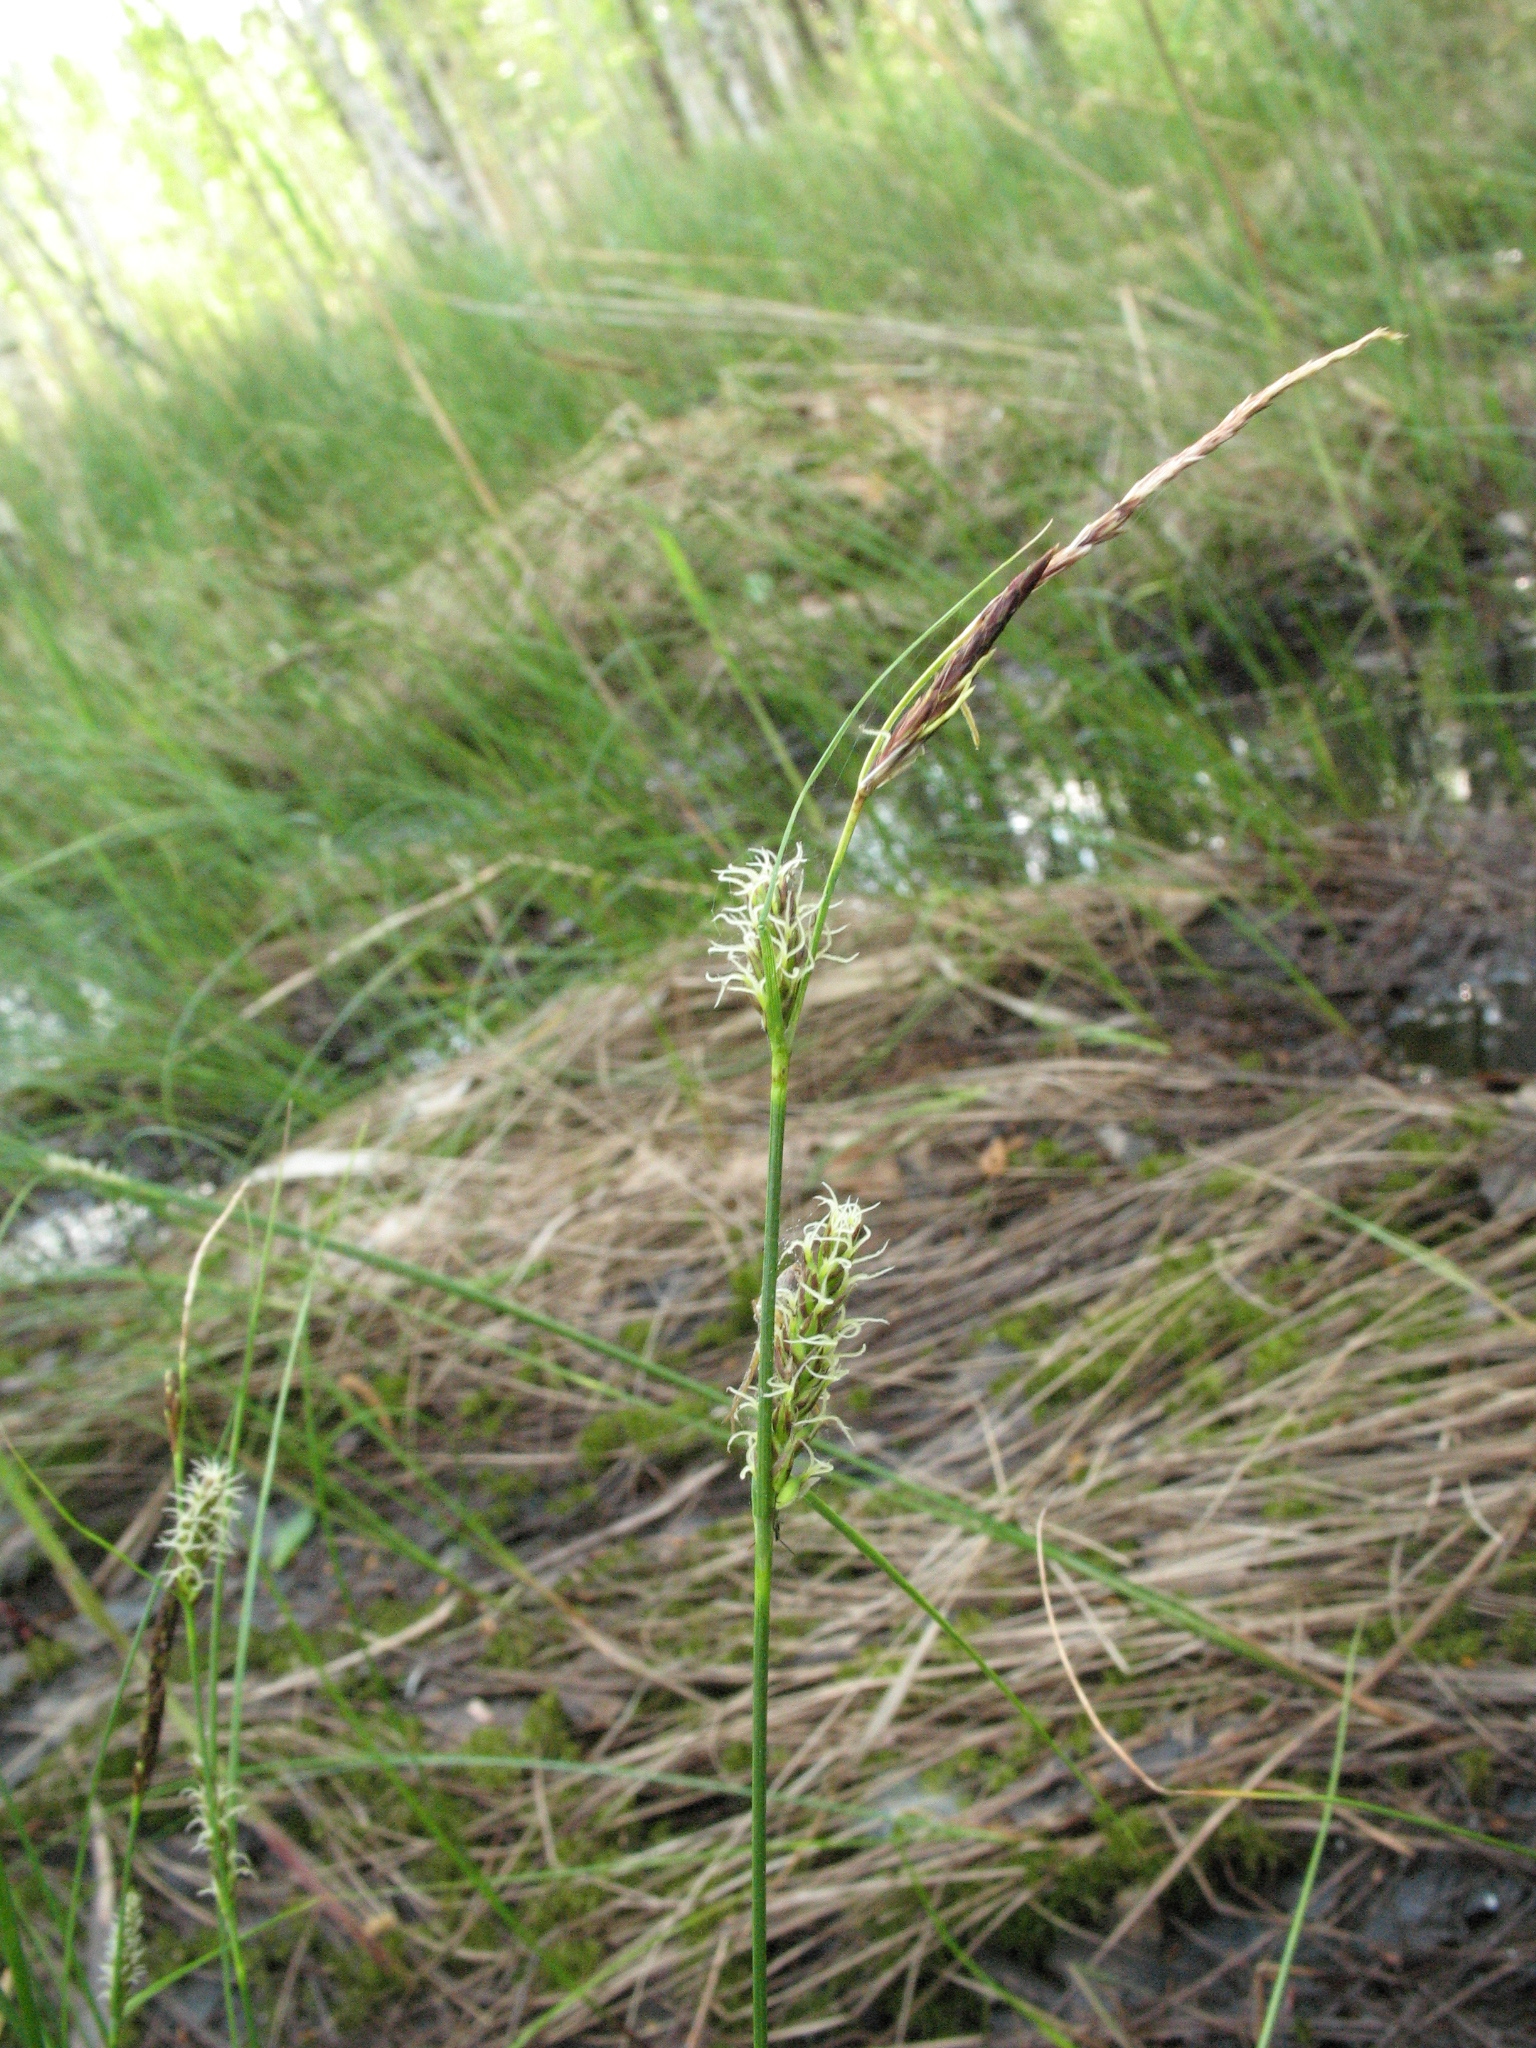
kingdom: Plantae
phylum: Tracheophyta
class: Liliopsida
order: Poales
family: Cyperaceae
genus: Carex
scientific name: Carex lasiocarpa
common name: Slender sedge
